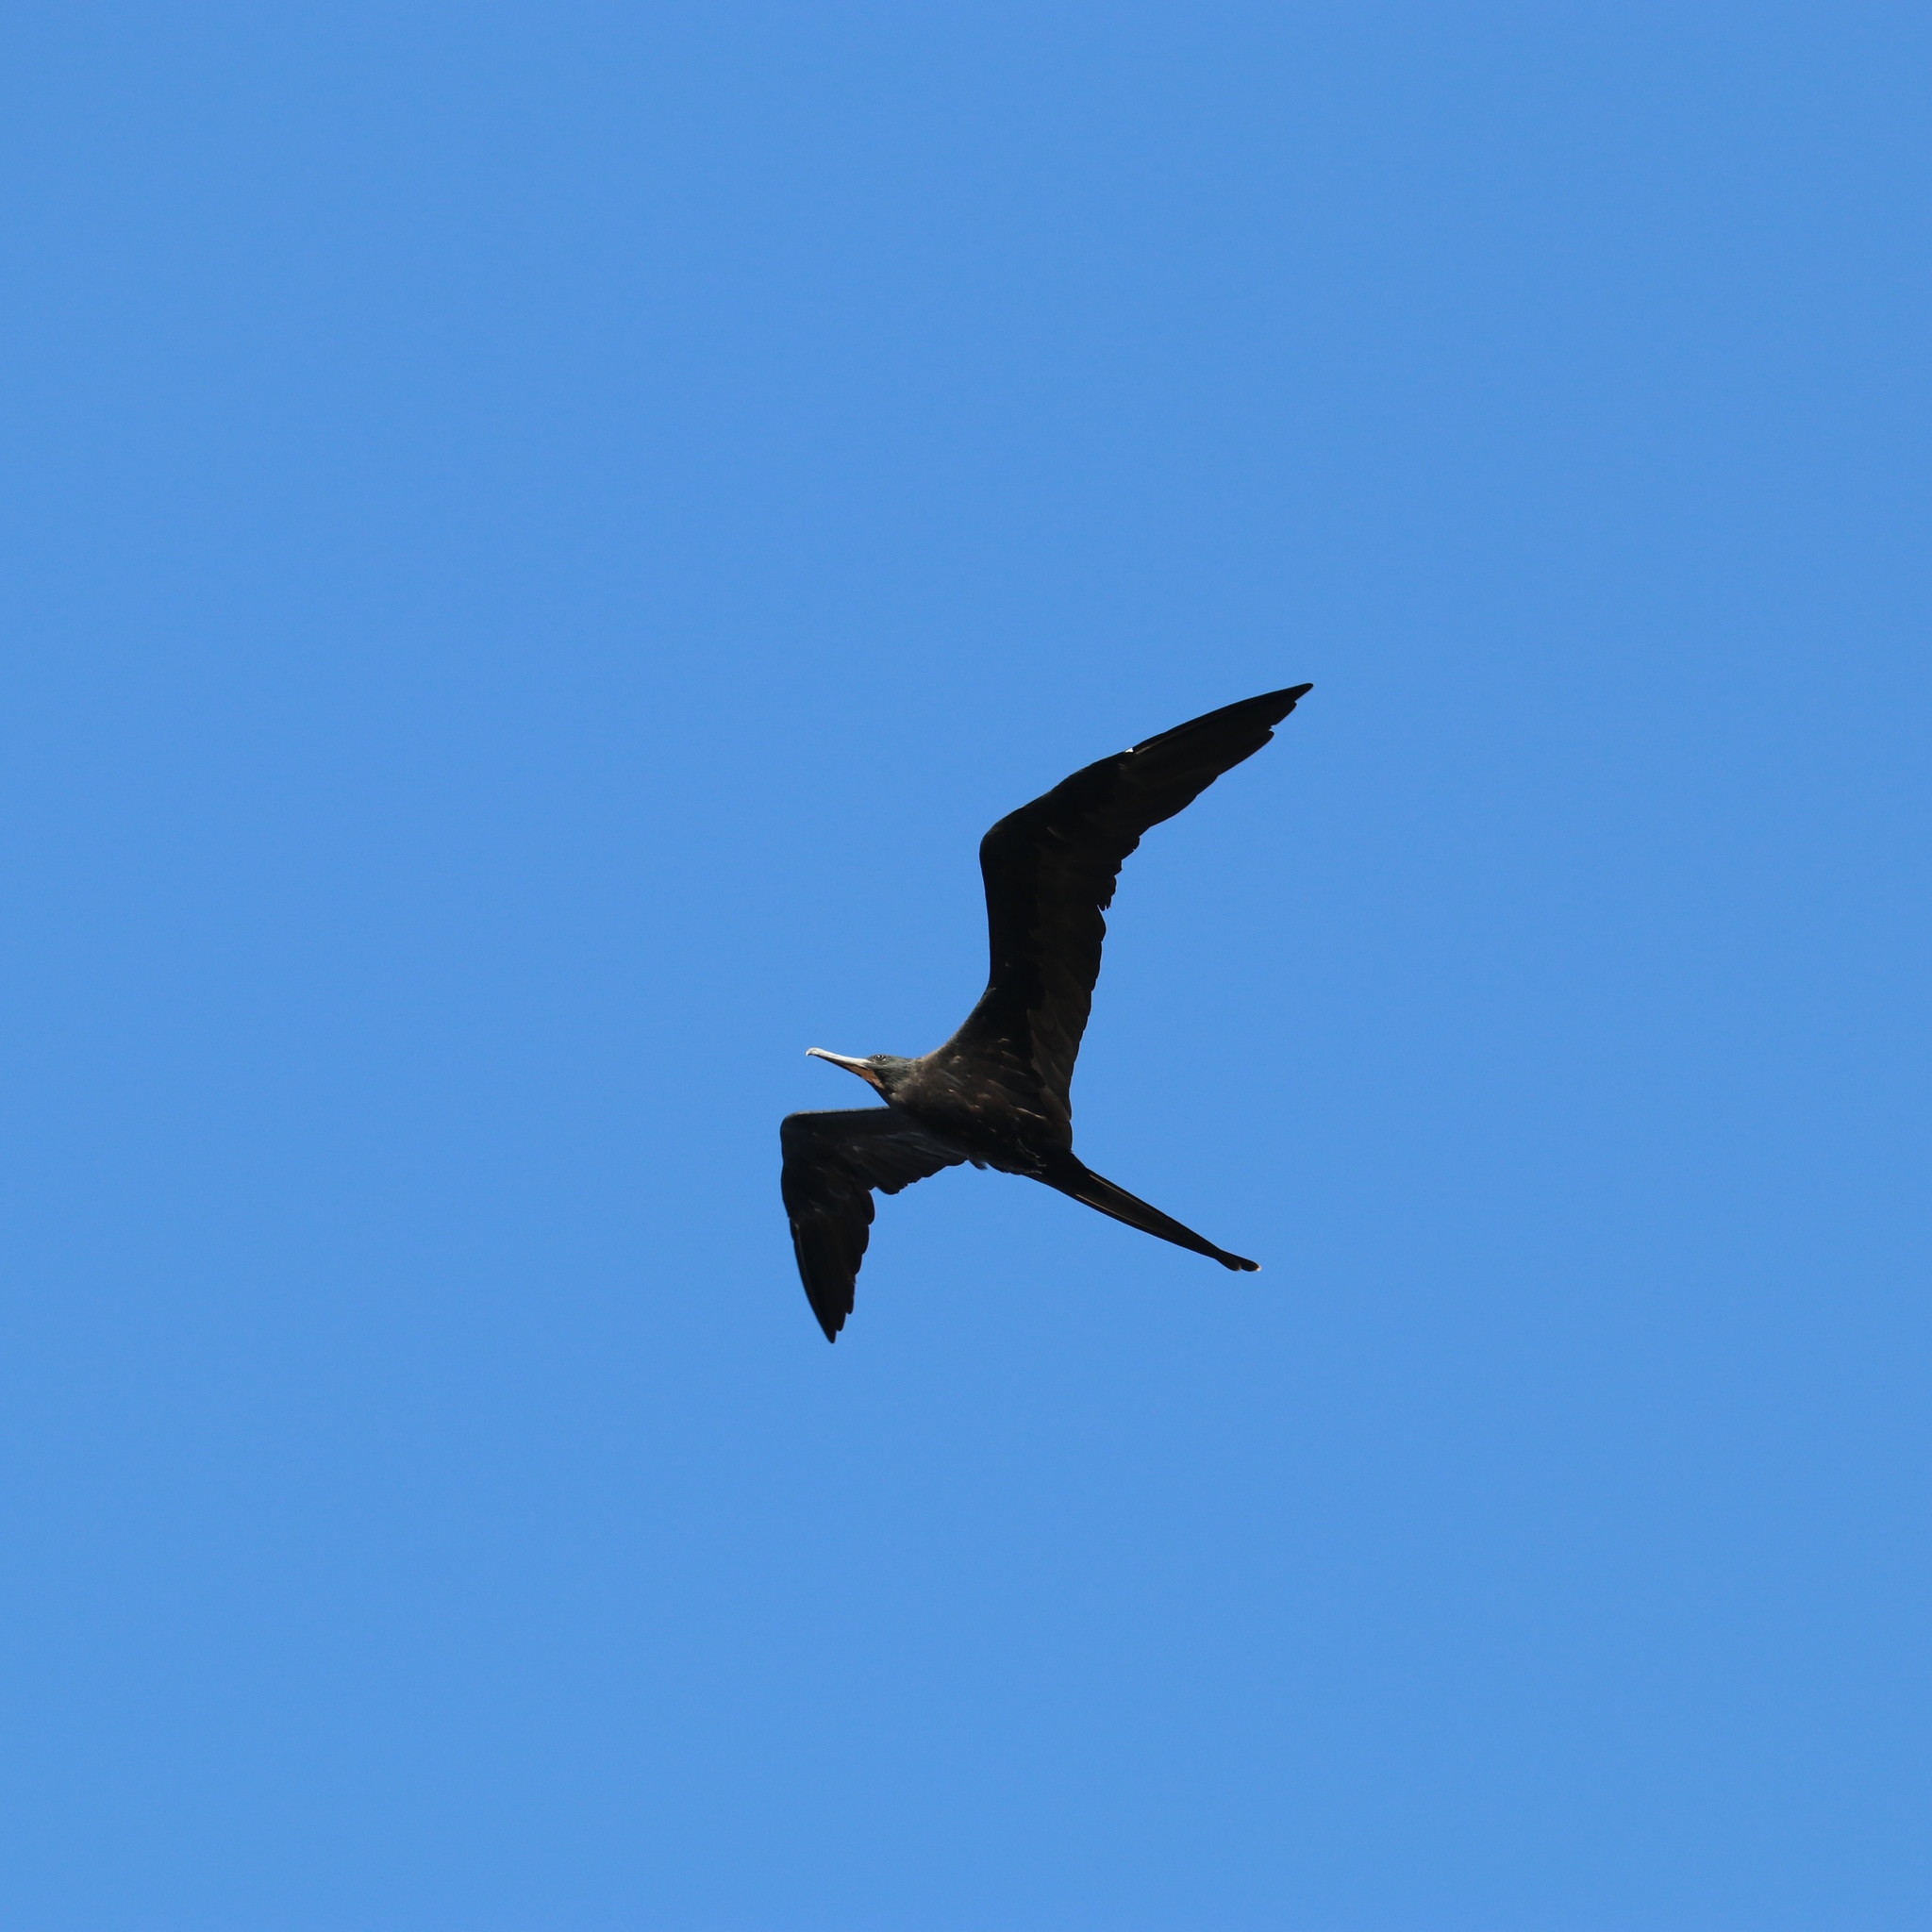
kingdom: Animalia
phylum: Chordata
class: Aves
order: Suliformes
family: Fregatidae
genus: Fregata
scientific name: Fregata magnificens
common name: Magnificent frigatebird
